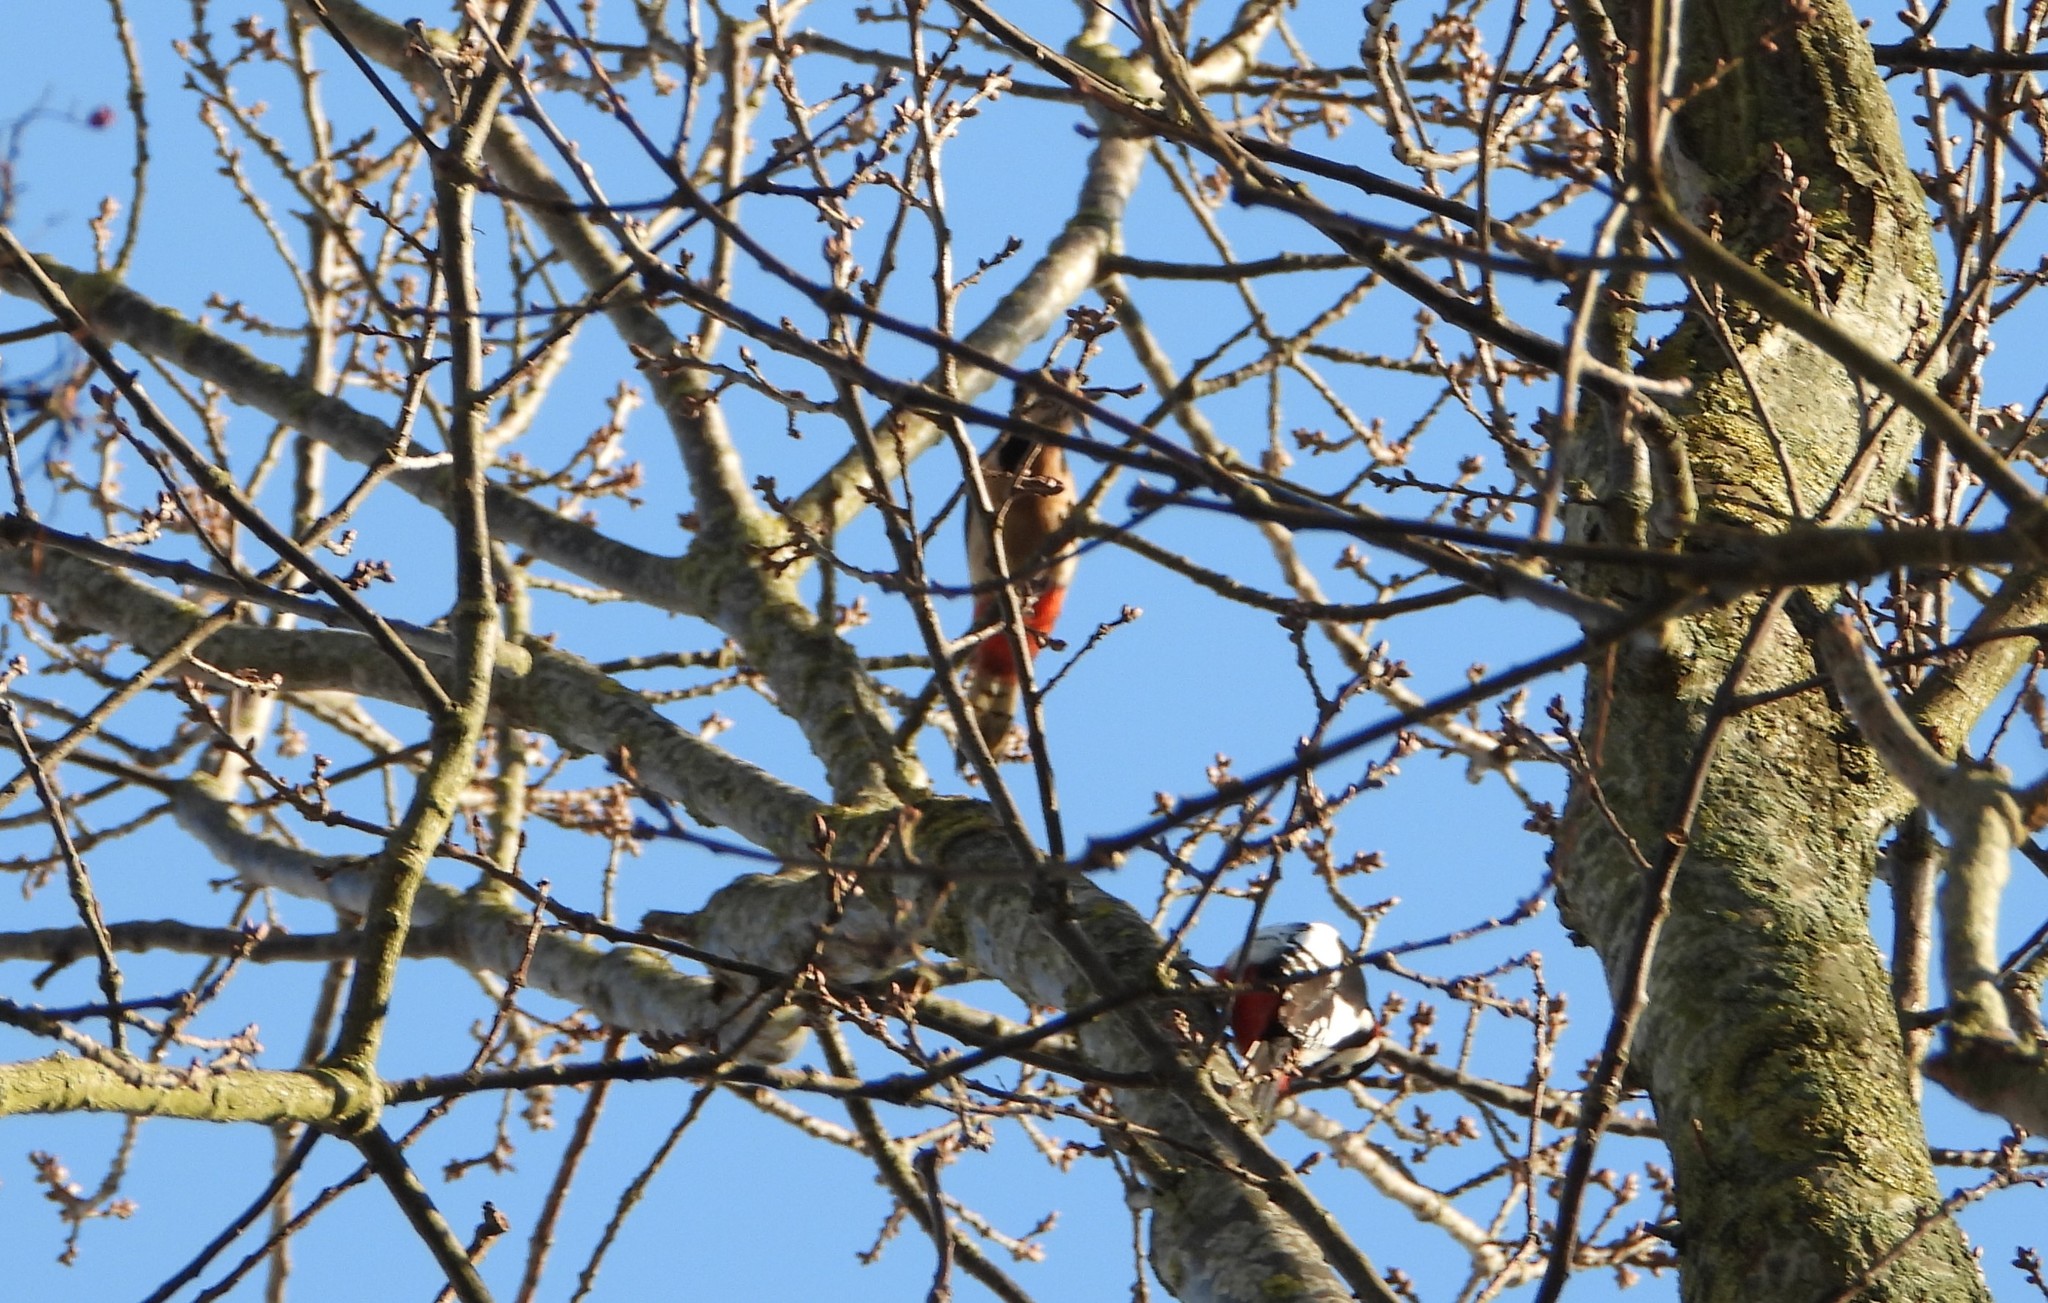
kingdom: Animalia
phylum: Chordata
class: Aves
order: Piciformes
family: Picidae
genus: Dendrocopos
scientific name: Dendrocopos major
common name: Great spotted woodpecker
